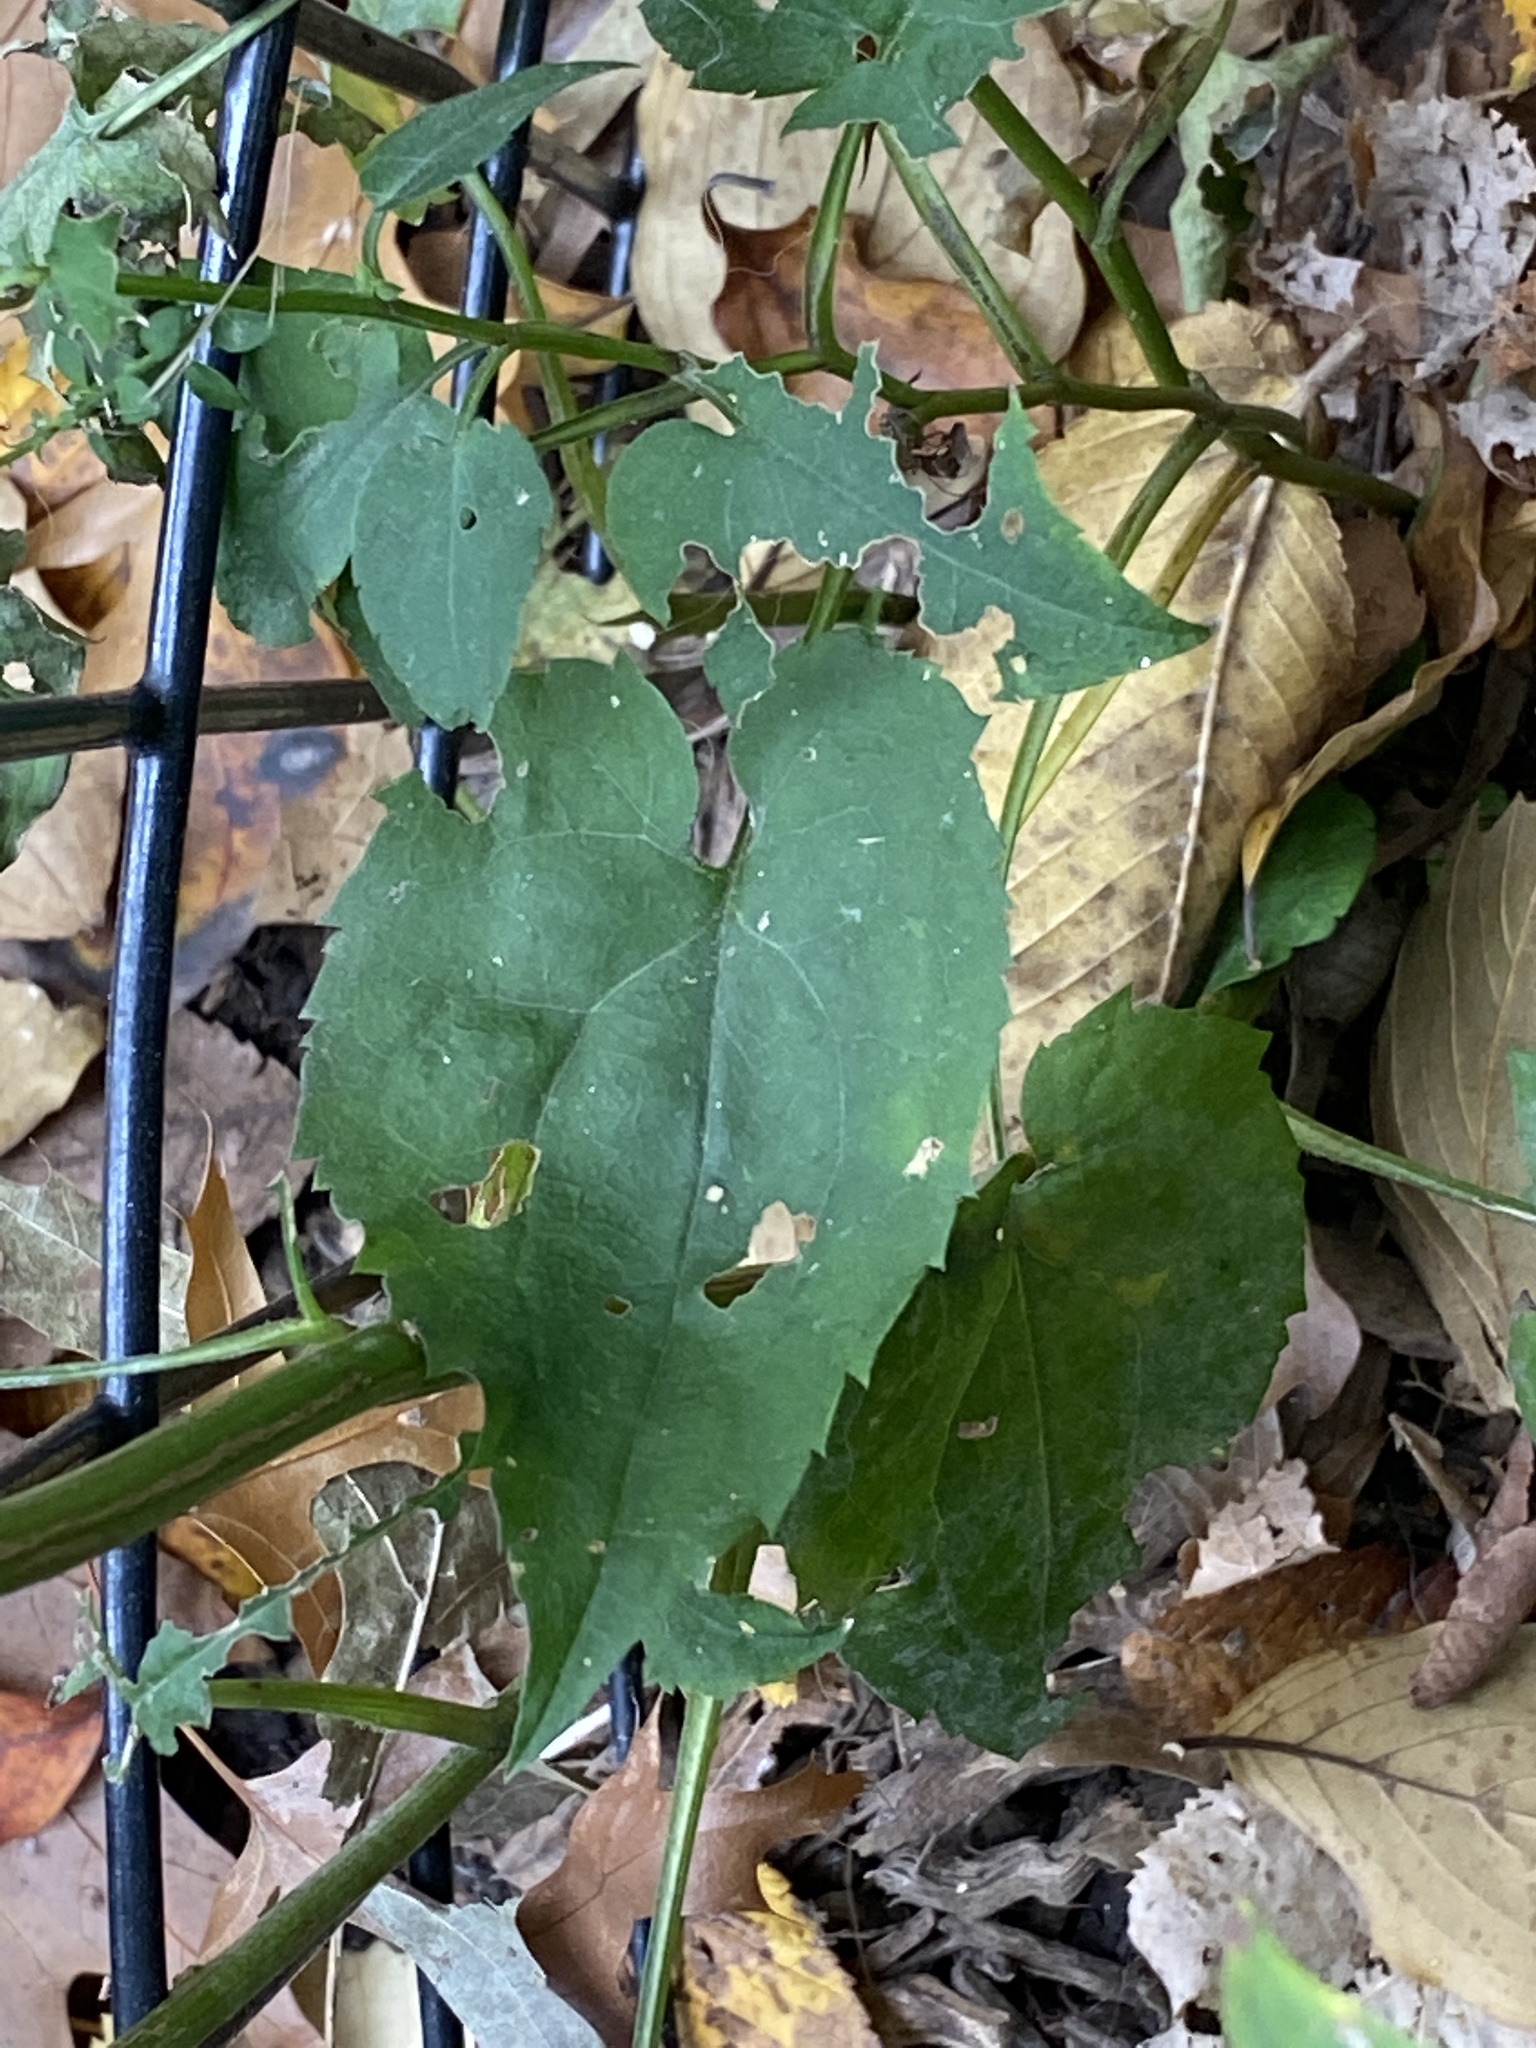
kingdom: Plantae
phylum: Tracheophyta
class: Magnoliopsida
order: Asterales
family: Asteraceae
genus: Symphyotrichum
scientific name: Symphyotrichum cordifolium
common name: Beeweed
